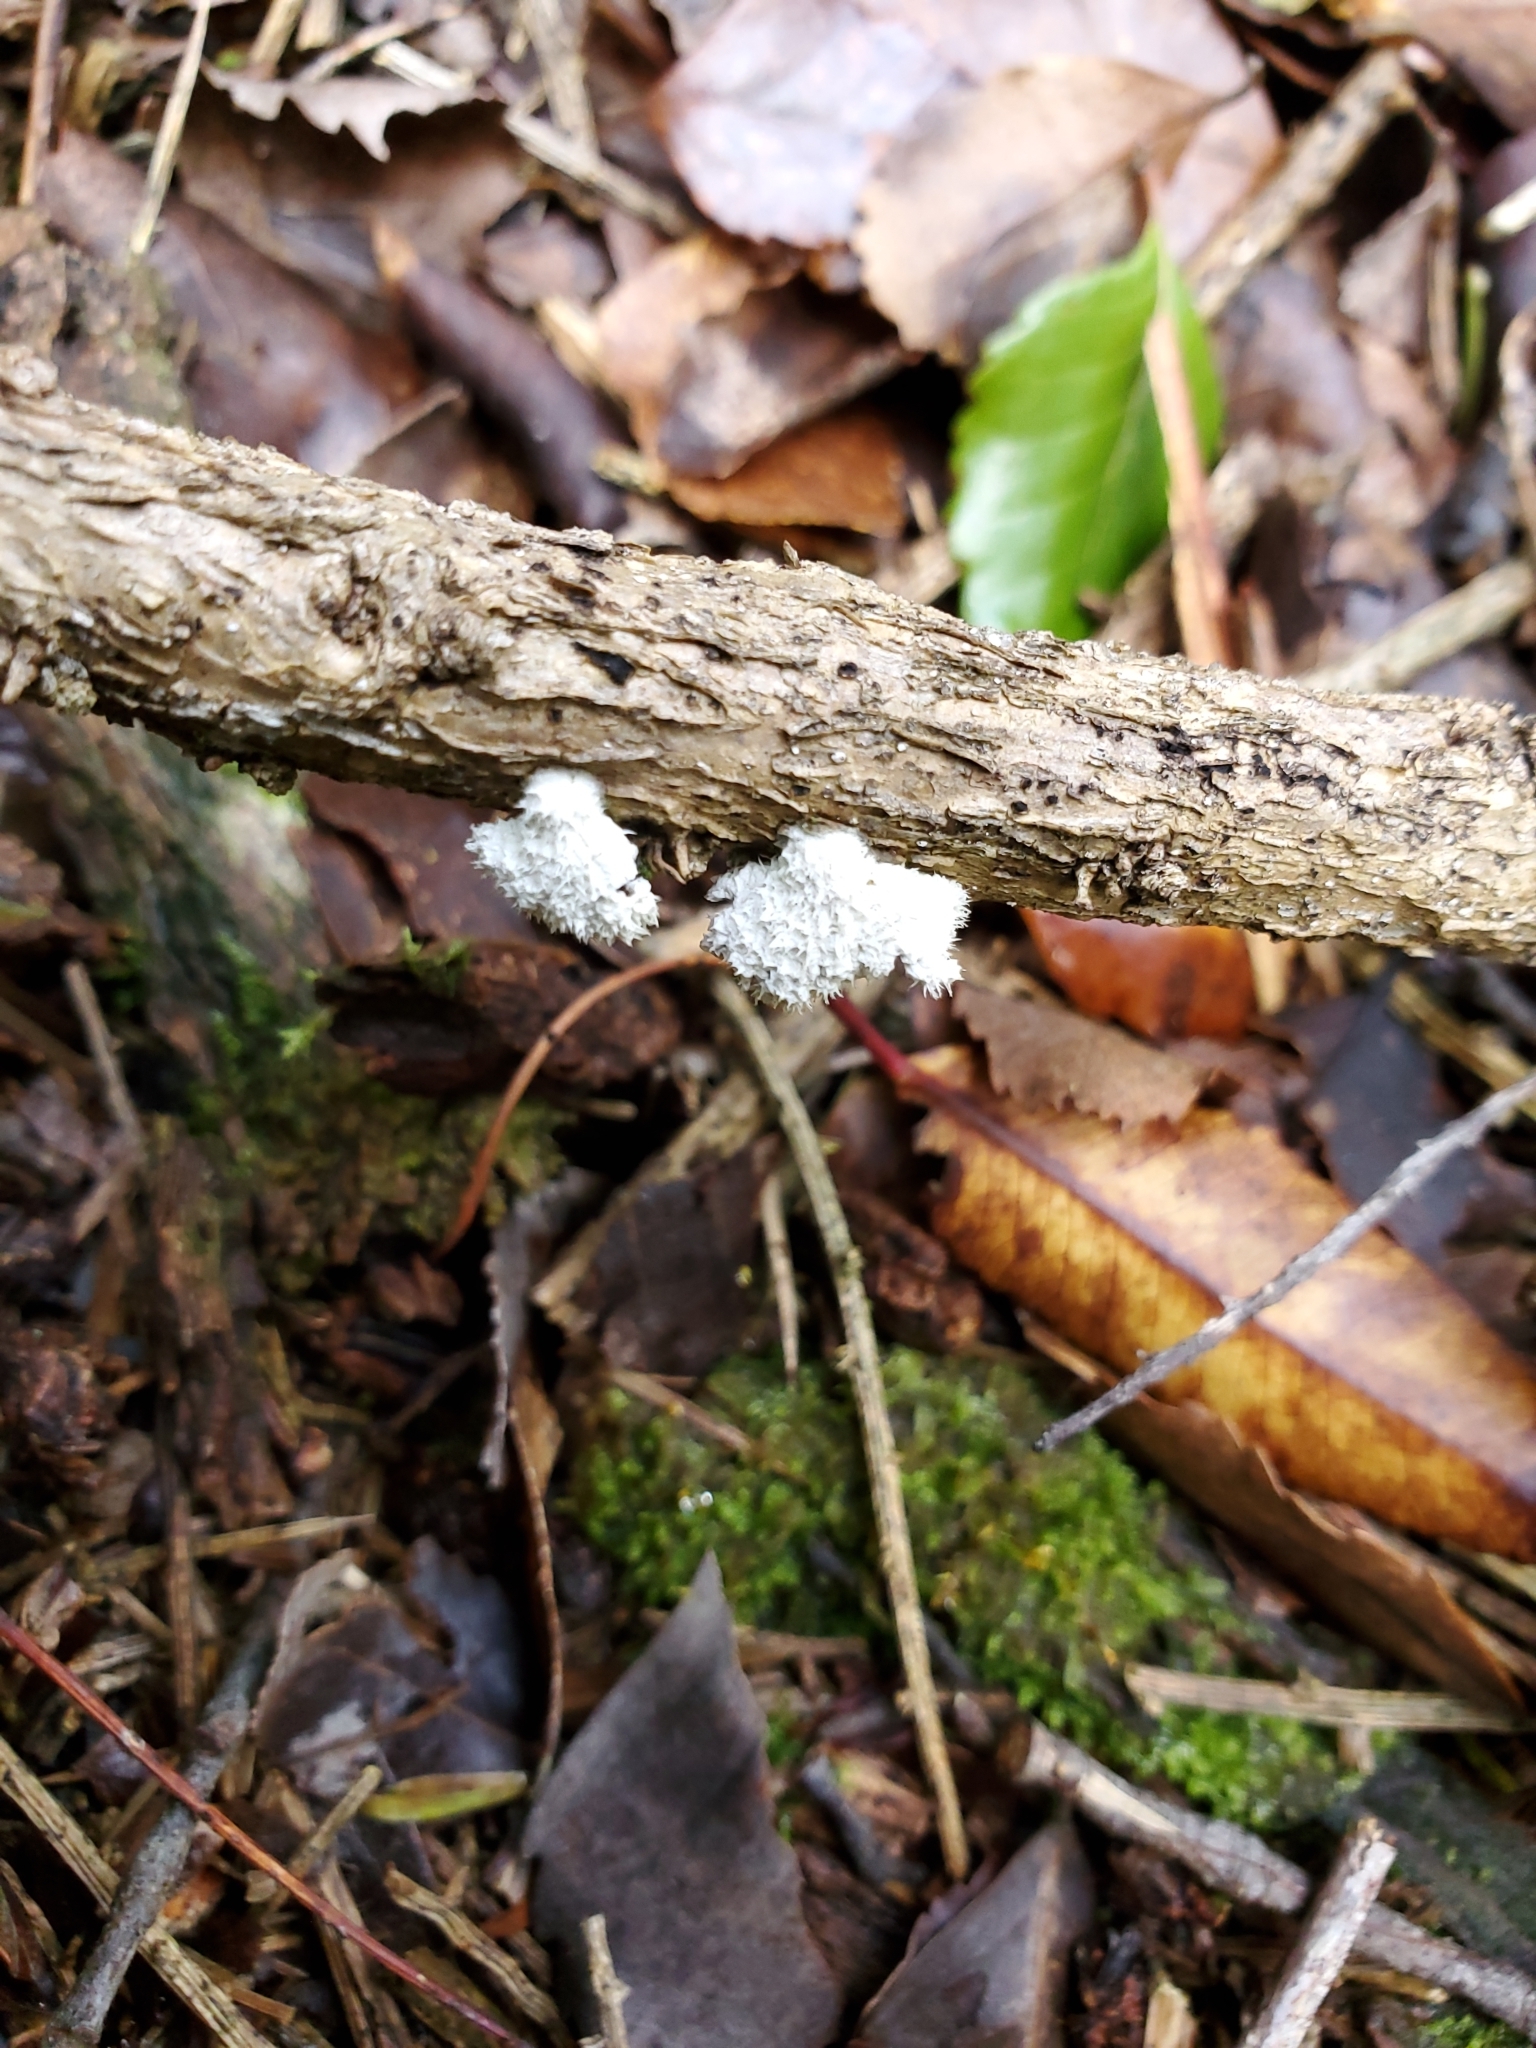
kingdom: Fungi
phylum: Basidiomycota
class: Agaricomycetes
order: Agaricales
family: Schizophyllaceae
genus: Schizophyllum
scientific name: Schizophyllum commune
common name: Common porecrust
